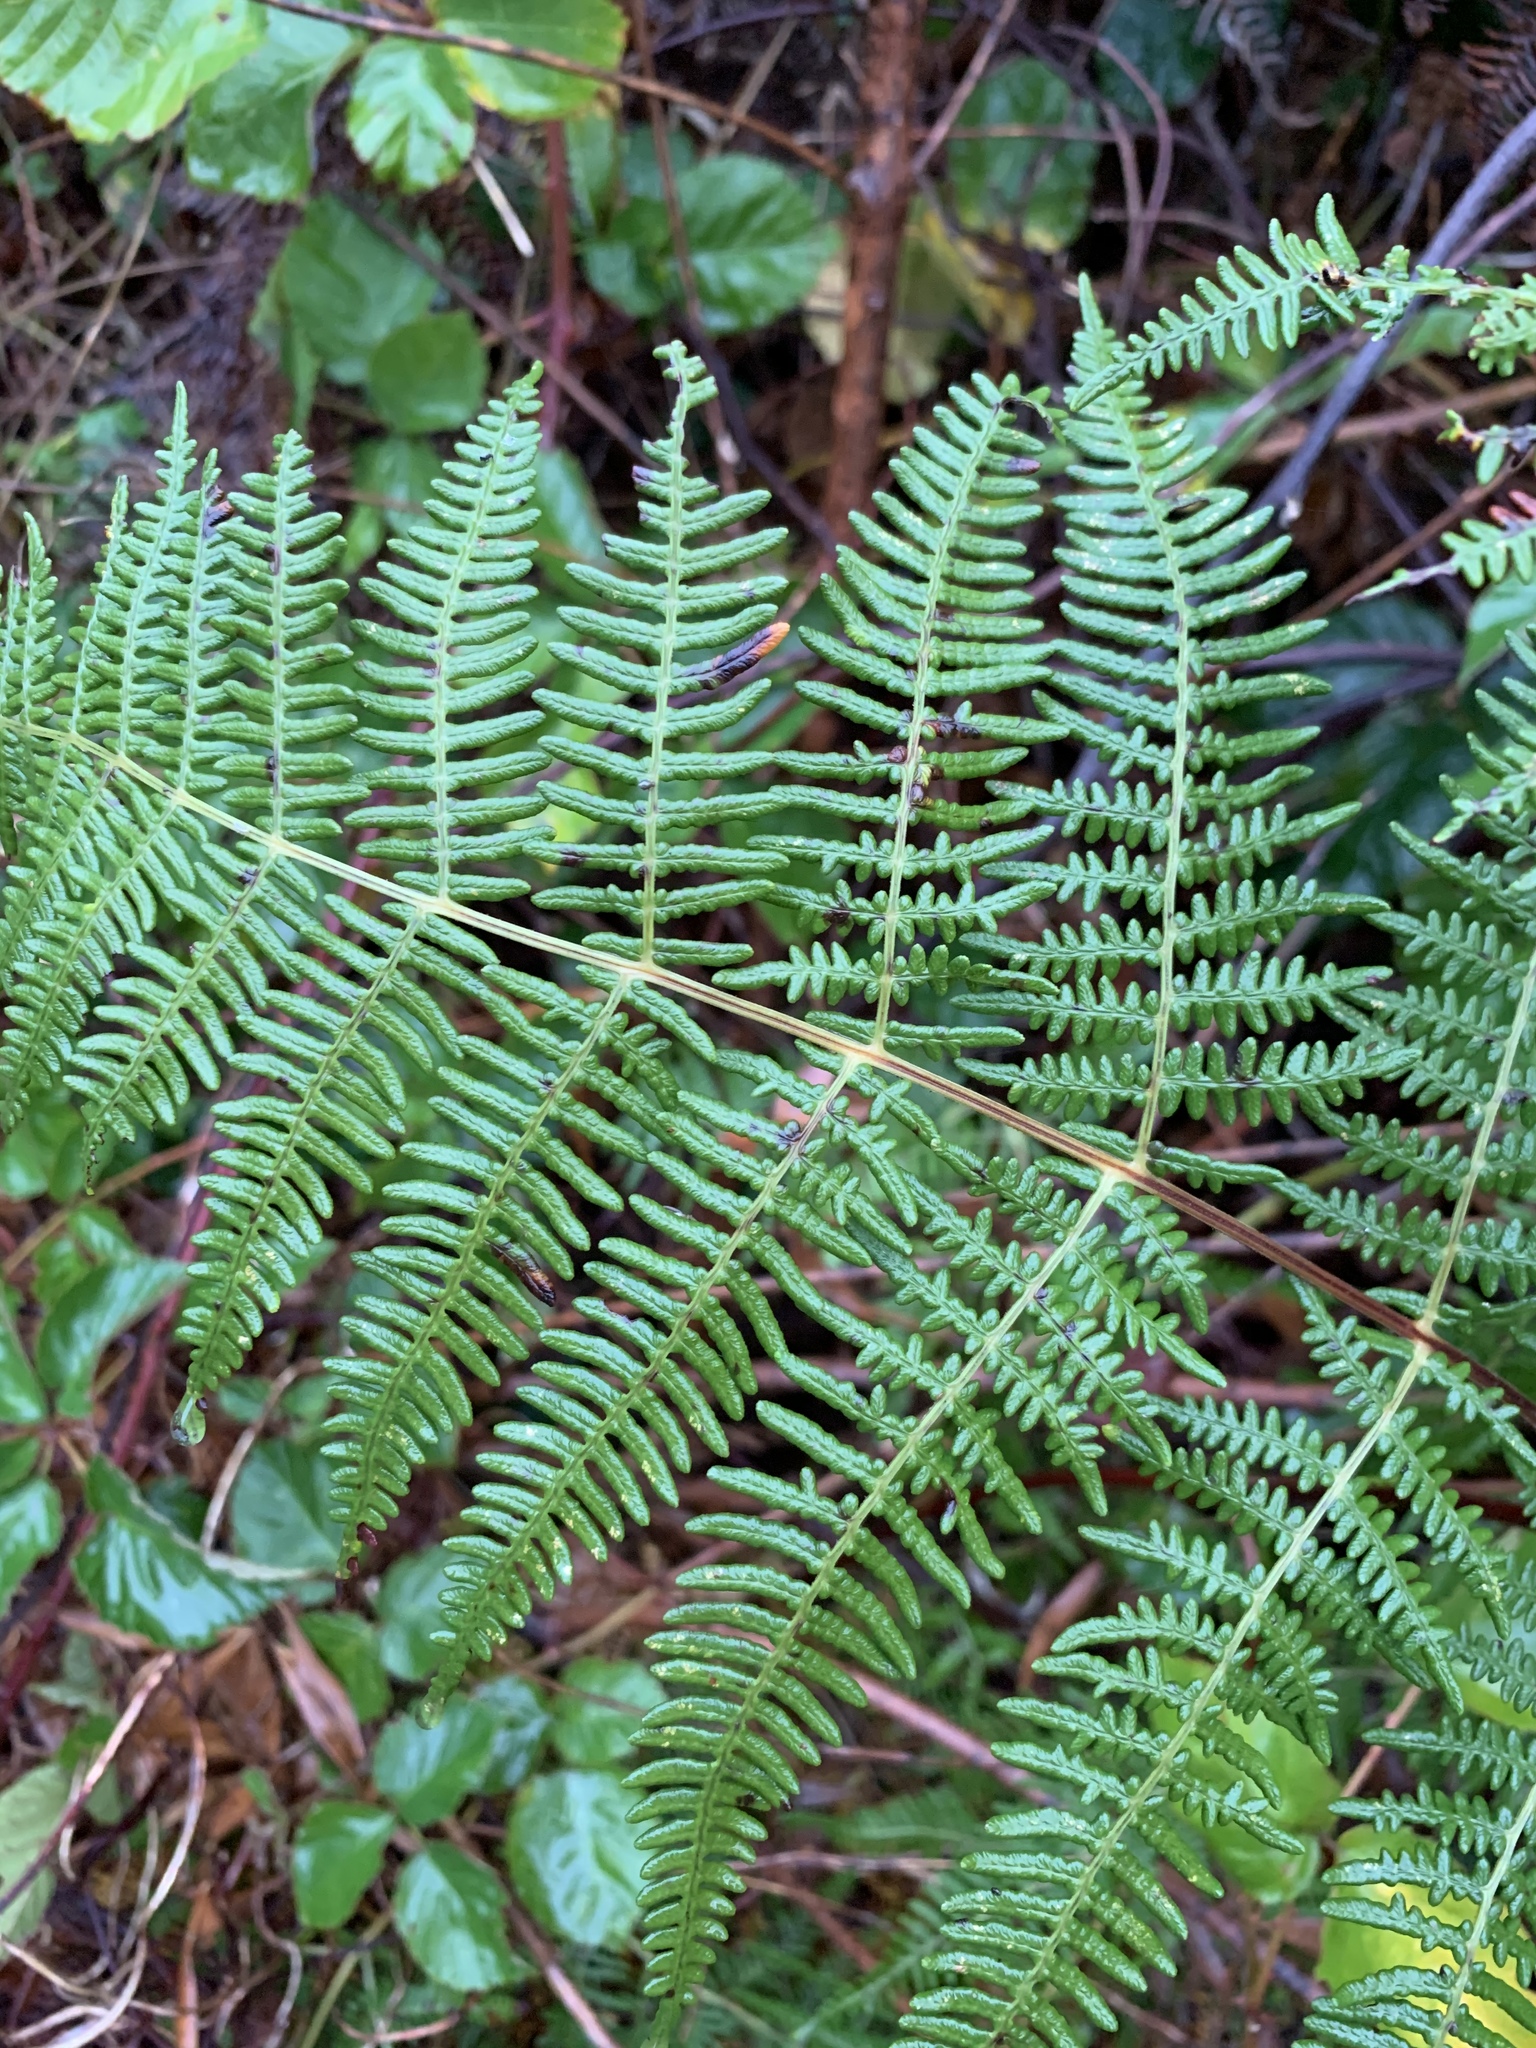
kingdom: Plantae
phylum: Tracheophyta
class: Polypodiopsida
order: Polypodiales
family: Dennstaedtiaceae
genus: Pteridium
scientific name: Pteridium aquilinum
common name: Bracken
